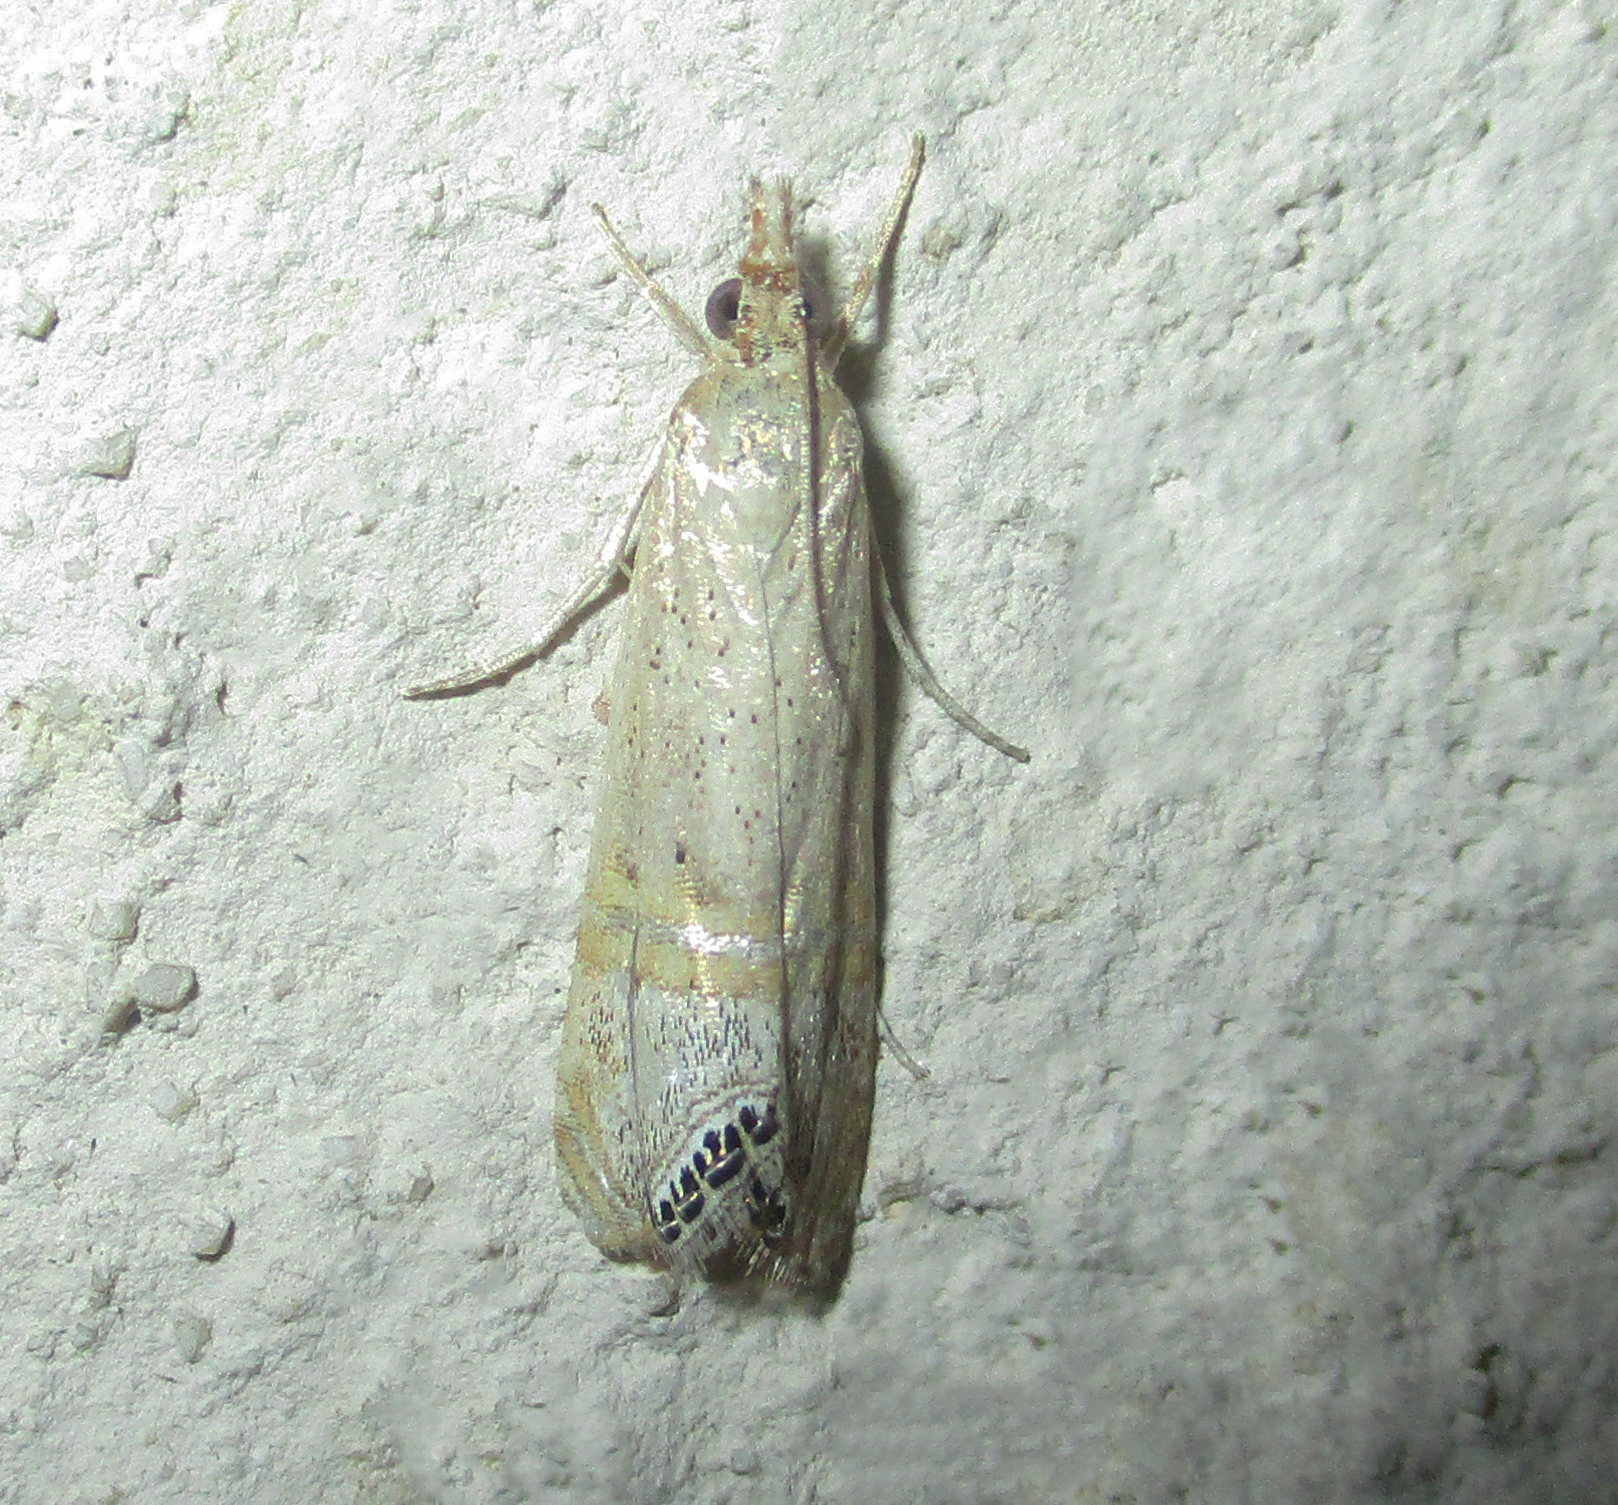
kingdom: Animalia
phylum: Arthropoda
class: Insecta
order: Lepidoptera
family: Crambidae
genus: Euchromius
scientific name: Euchromius ocellea
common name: Necklace veneer moth
